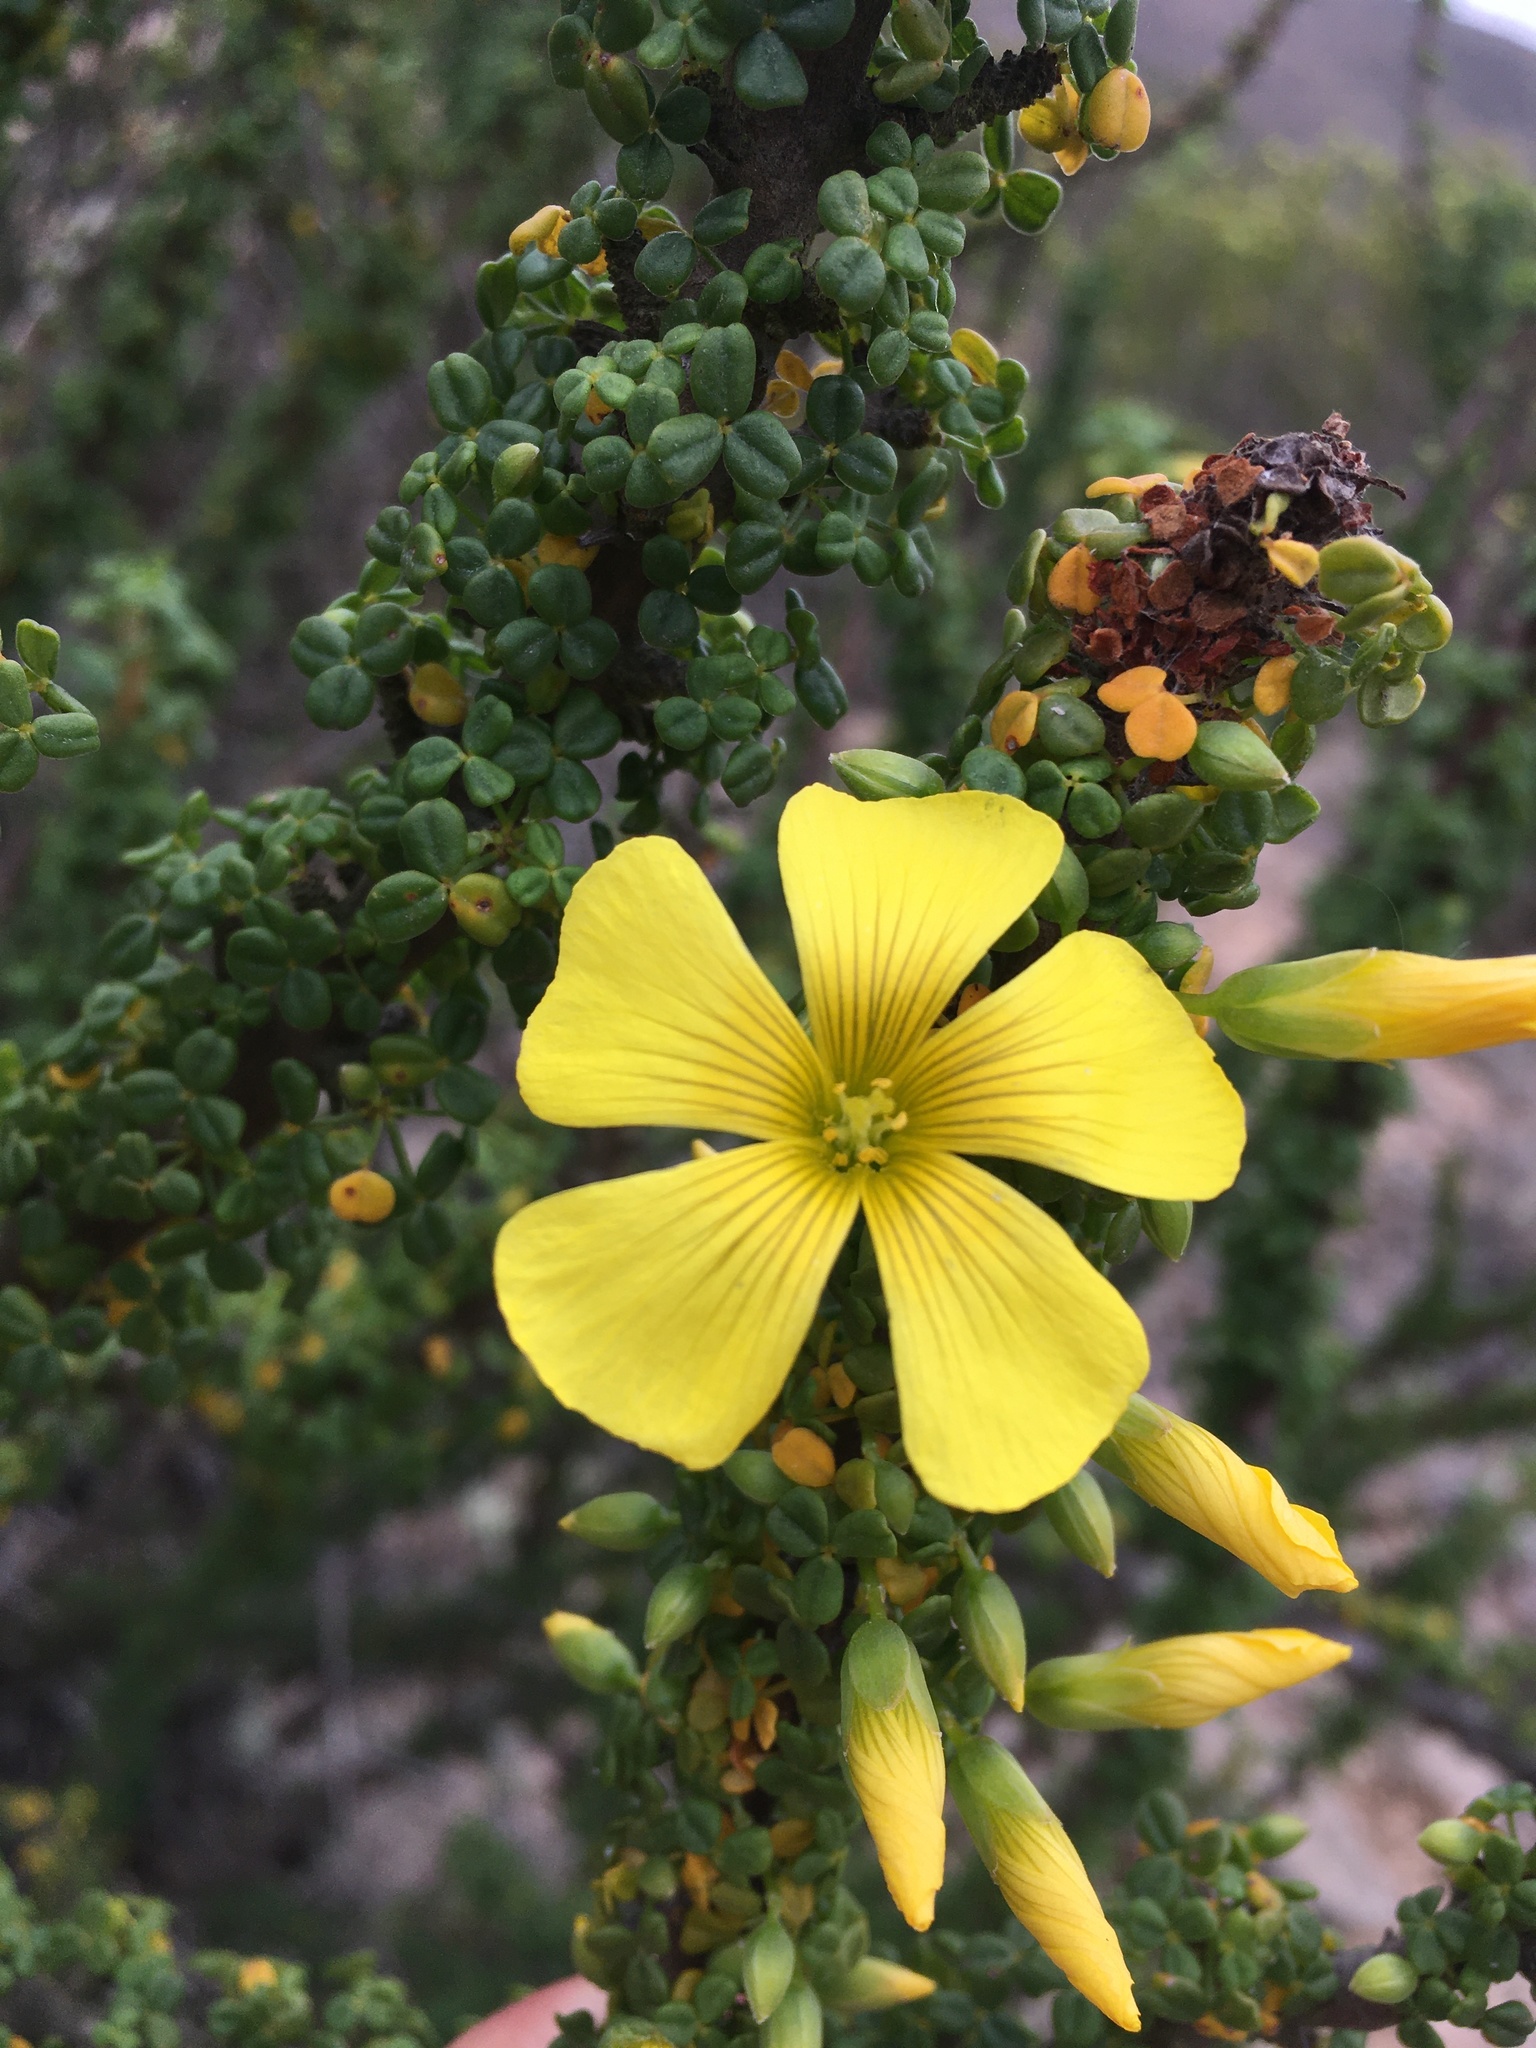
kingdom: Plantae
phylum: Tracheophyta
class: Magnoliopsida
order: Oxalidales
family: Oxalidaceae
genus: Oxalis
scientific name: Oxalis gigantea
